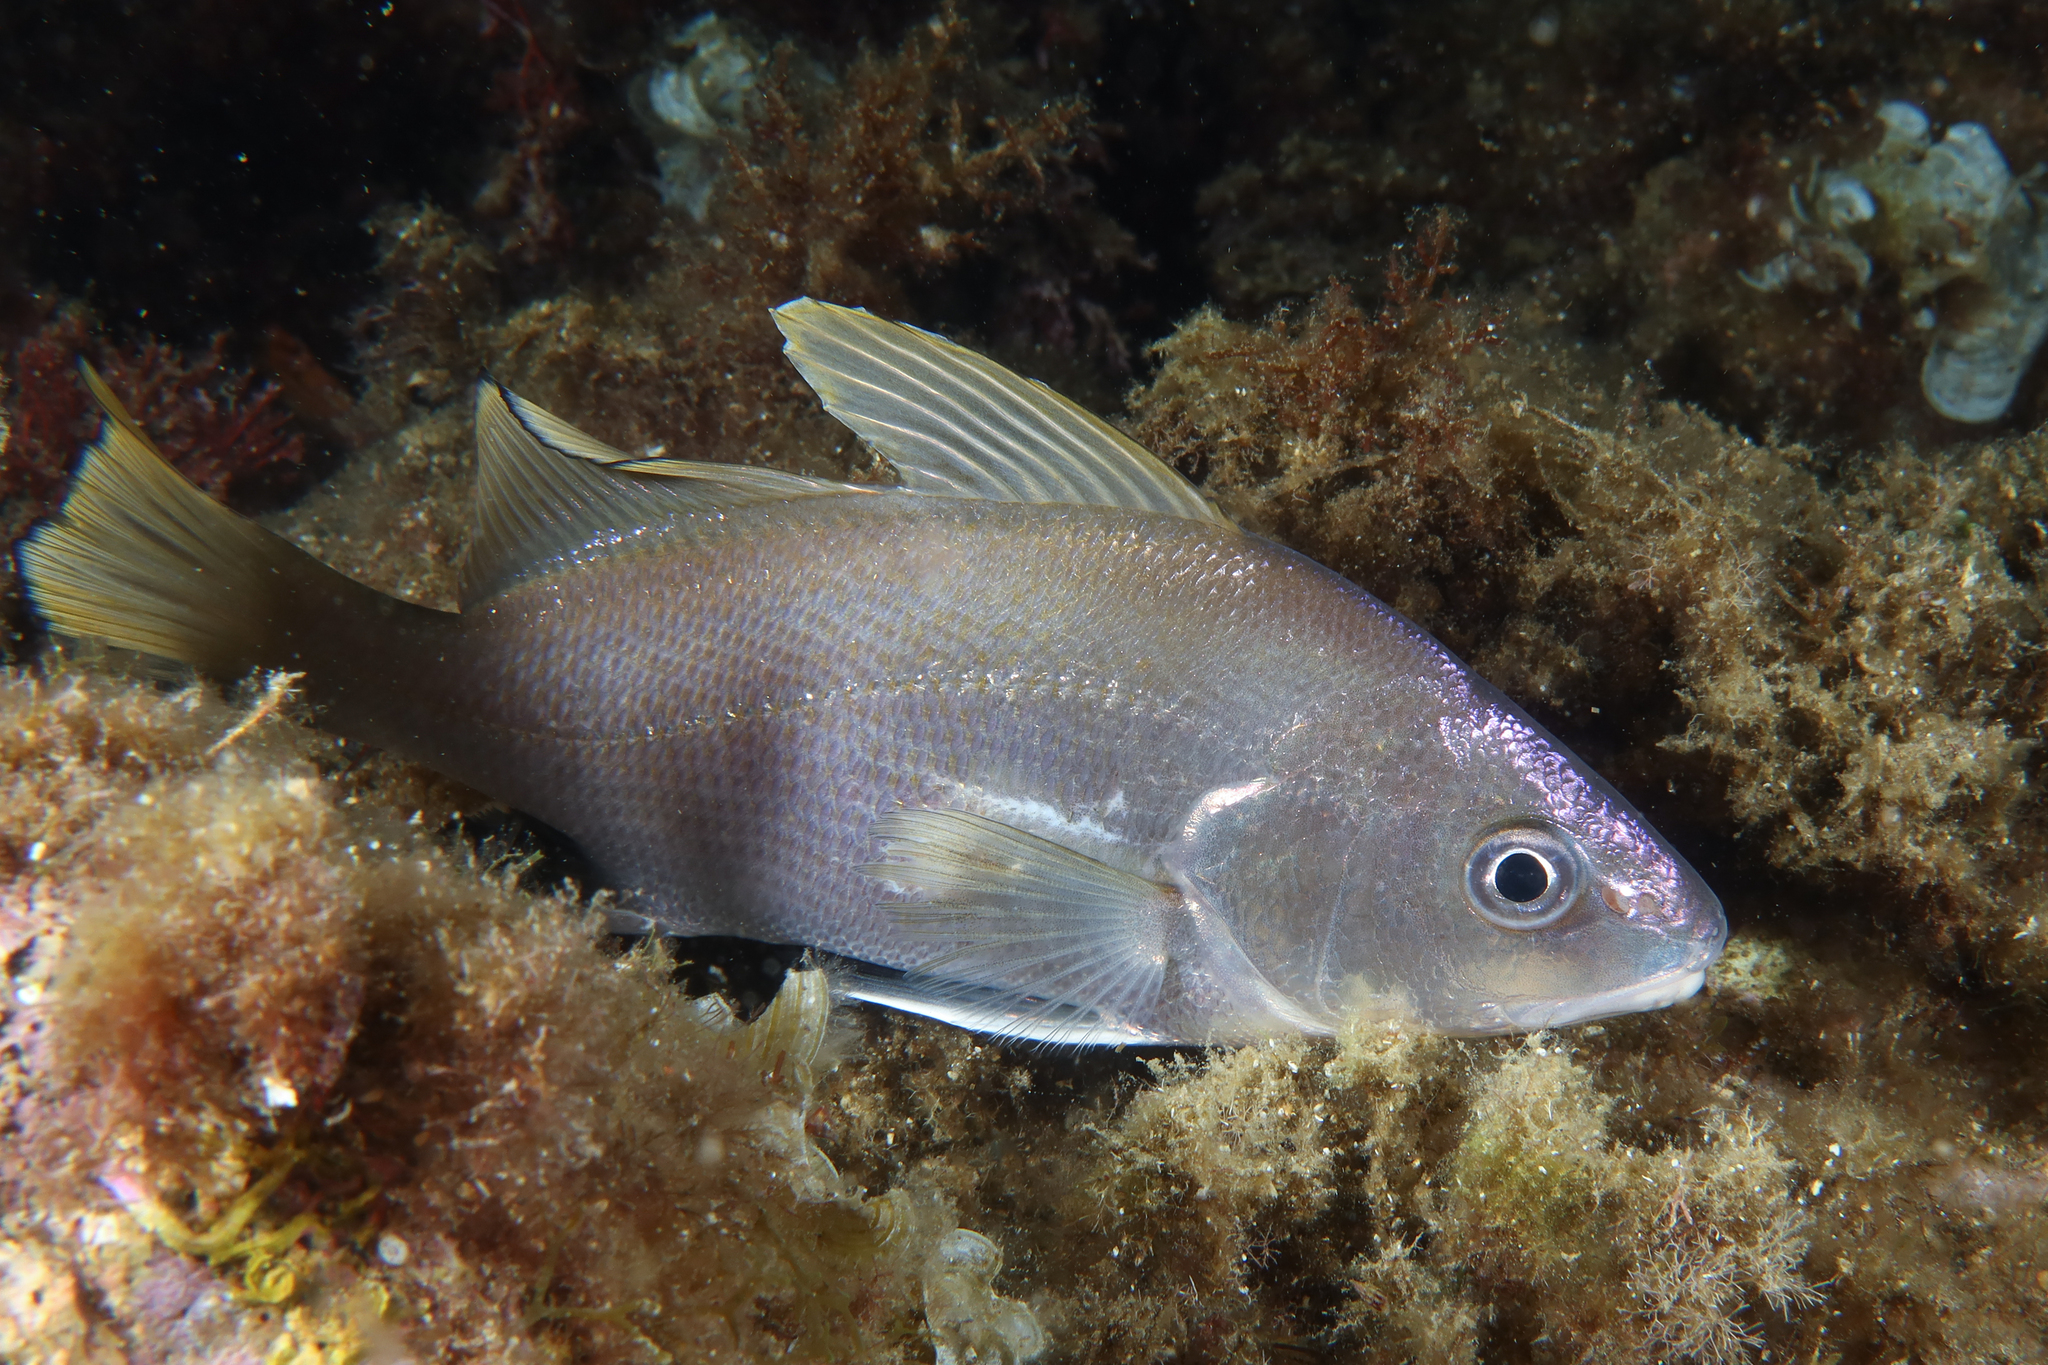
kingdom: Animalia
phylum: Chordata
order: Perciformes
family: Sciaenidae
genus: Sciaena
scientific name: Sciaena umbra
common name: Brown meagre
